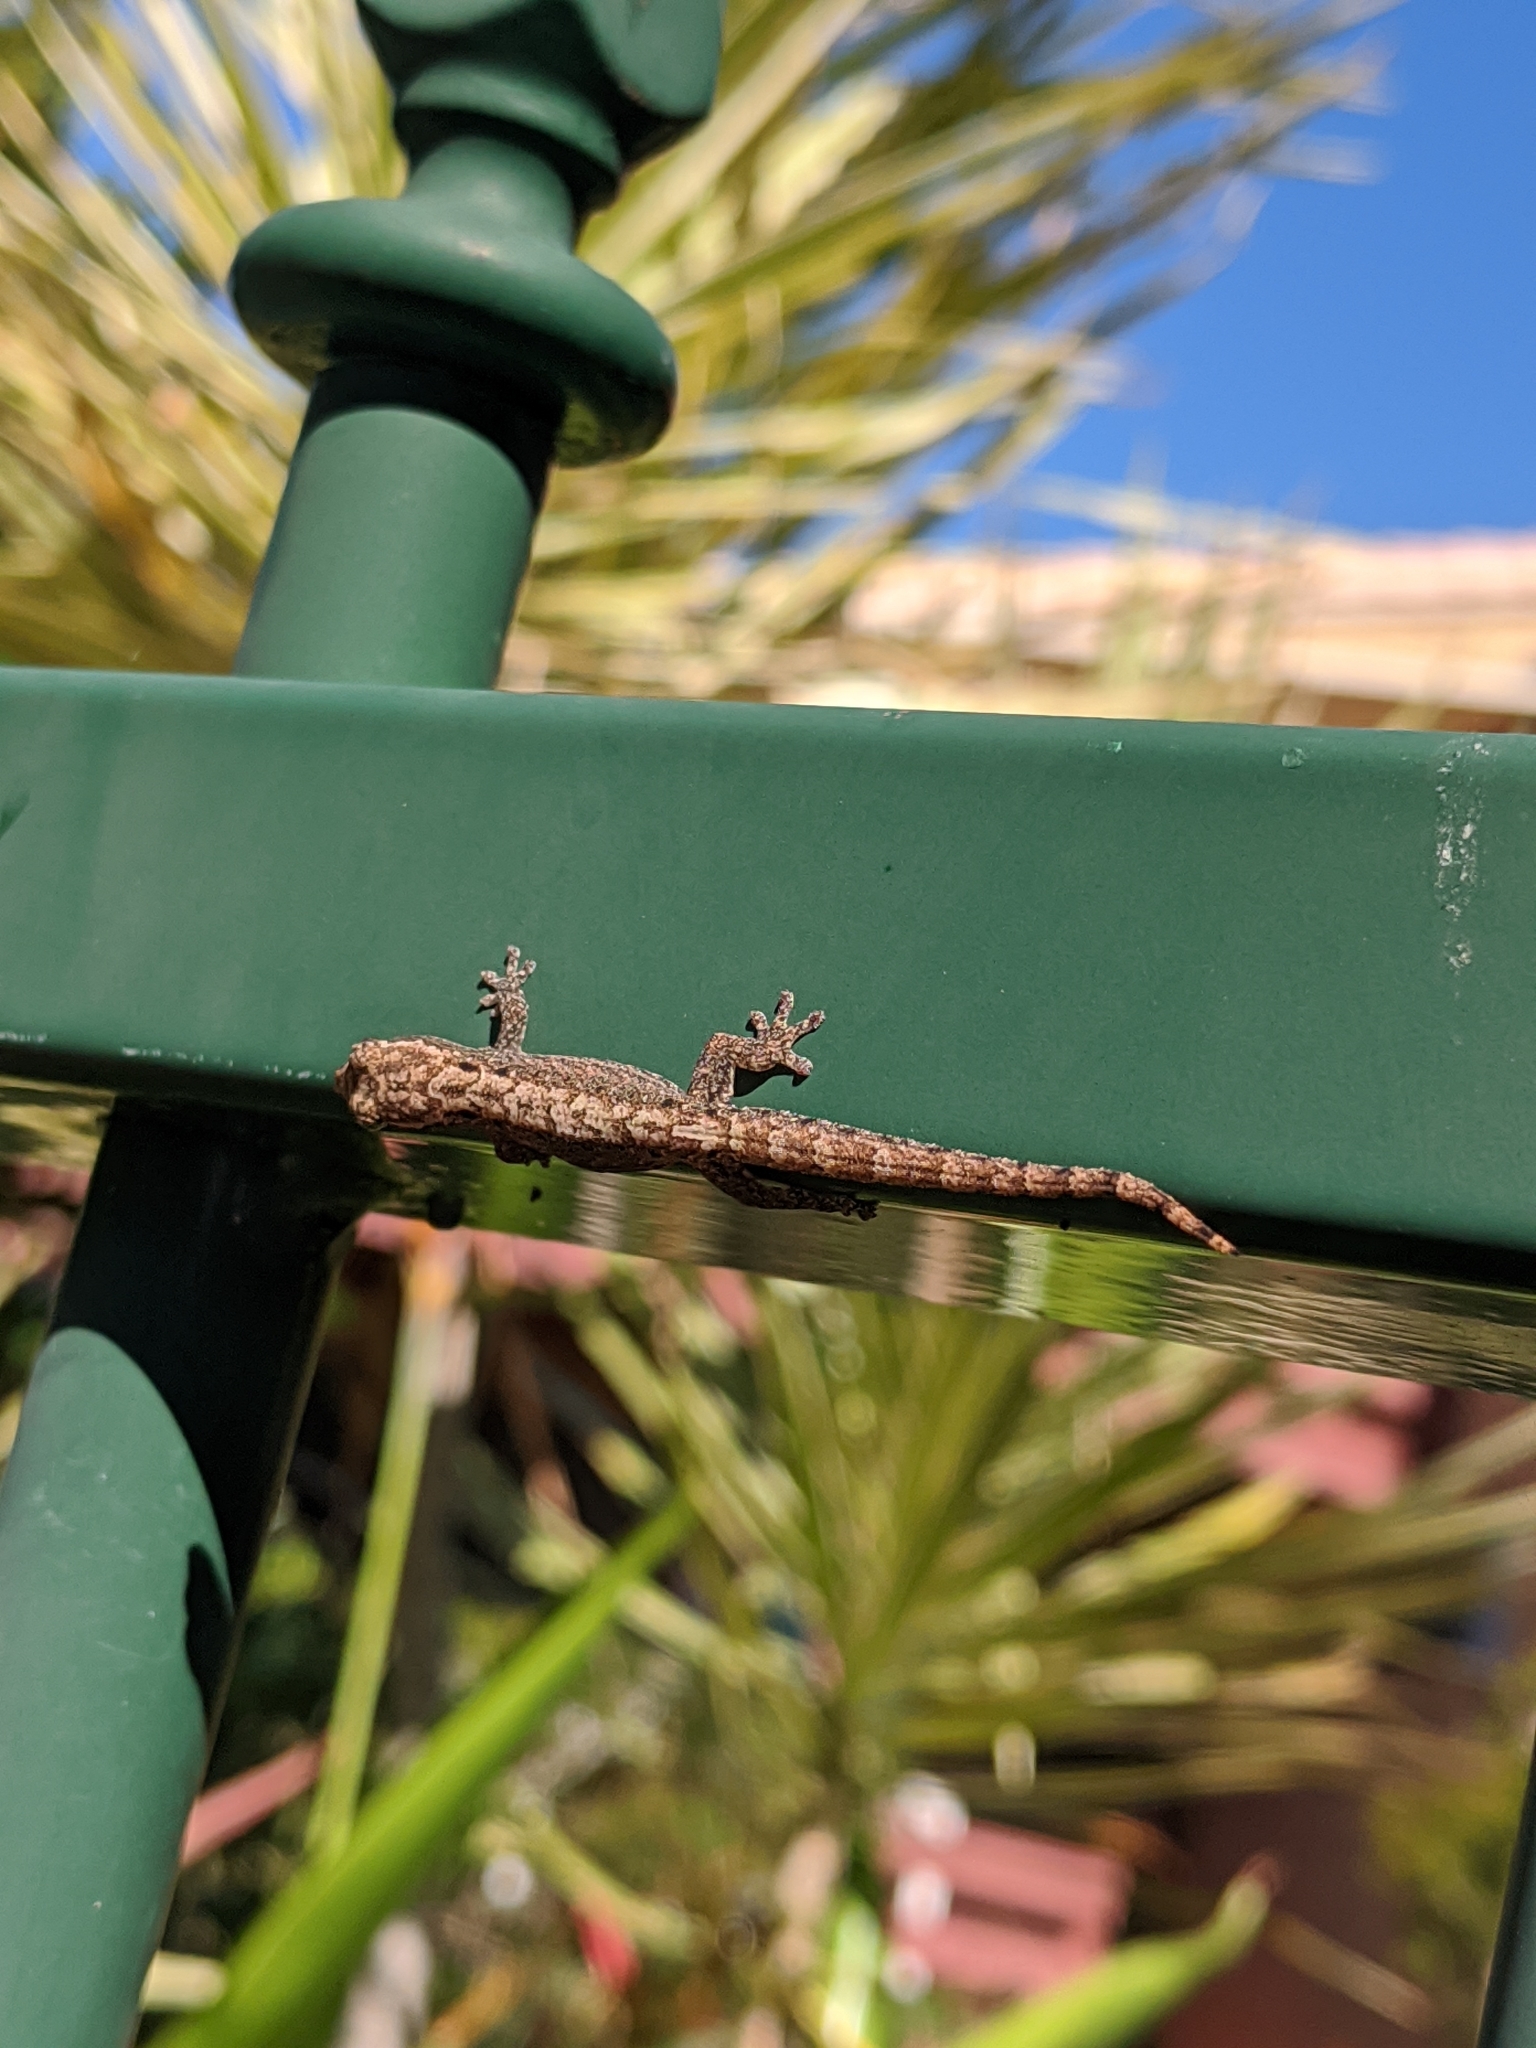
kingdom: Animalia
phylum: Chordata
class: Squamata
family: Gekkonidae
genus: Lepidodactylus
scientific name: Lepidodactylus lugubris
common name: Mourning gecko
